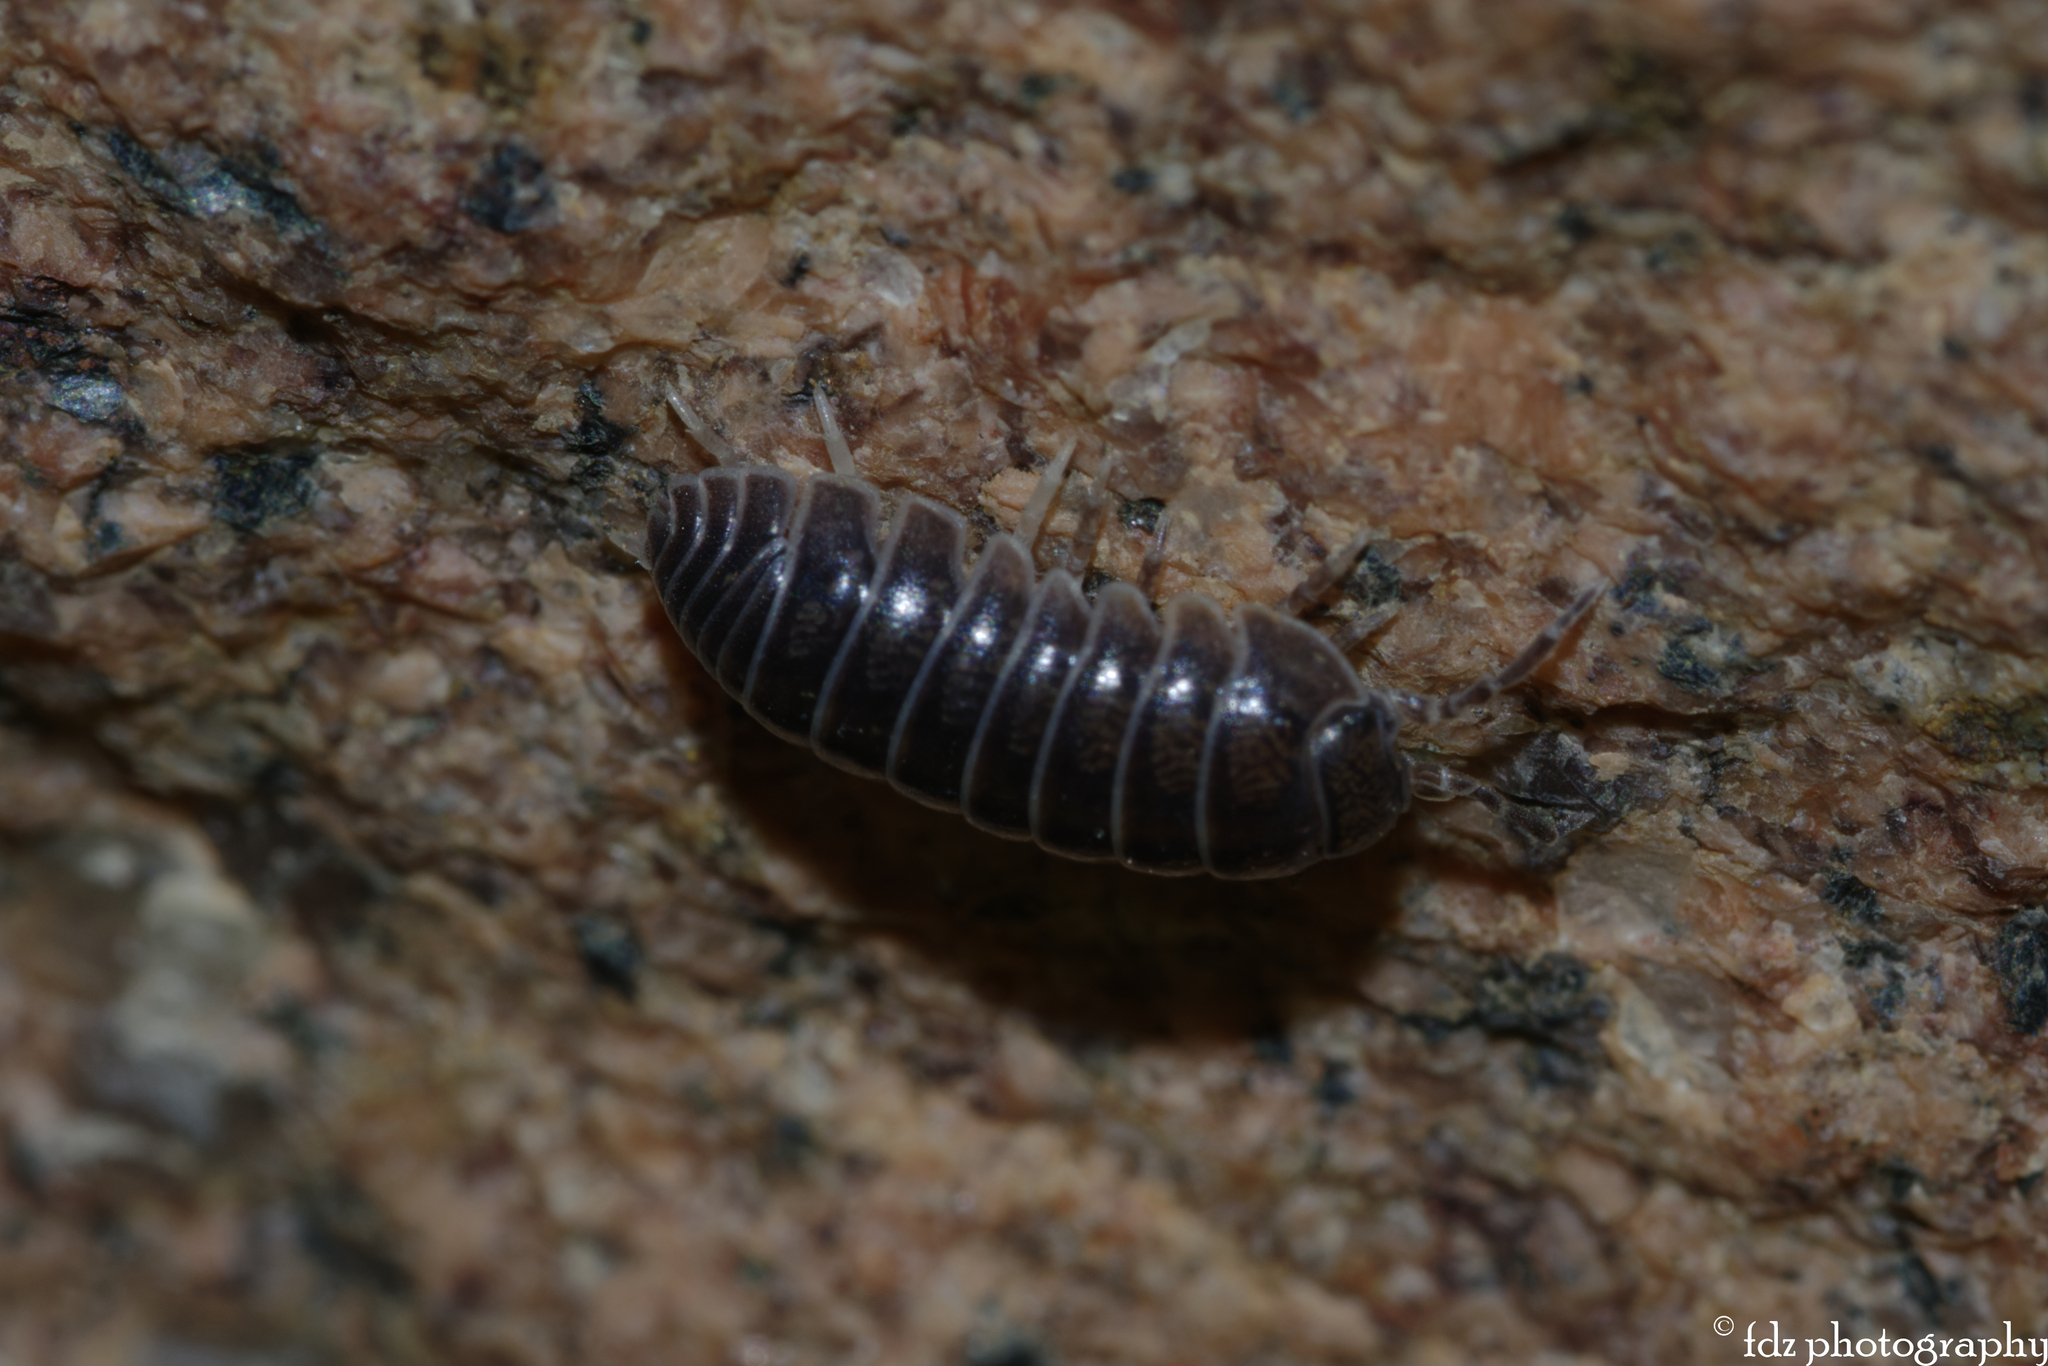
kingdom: Animalia
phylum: Arthropoda
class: Malacostraca
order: Isopoda
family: Armadillidiidae
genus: Armadillidium
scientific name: Armadillidium vulgare
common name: Common pill woodlouse
